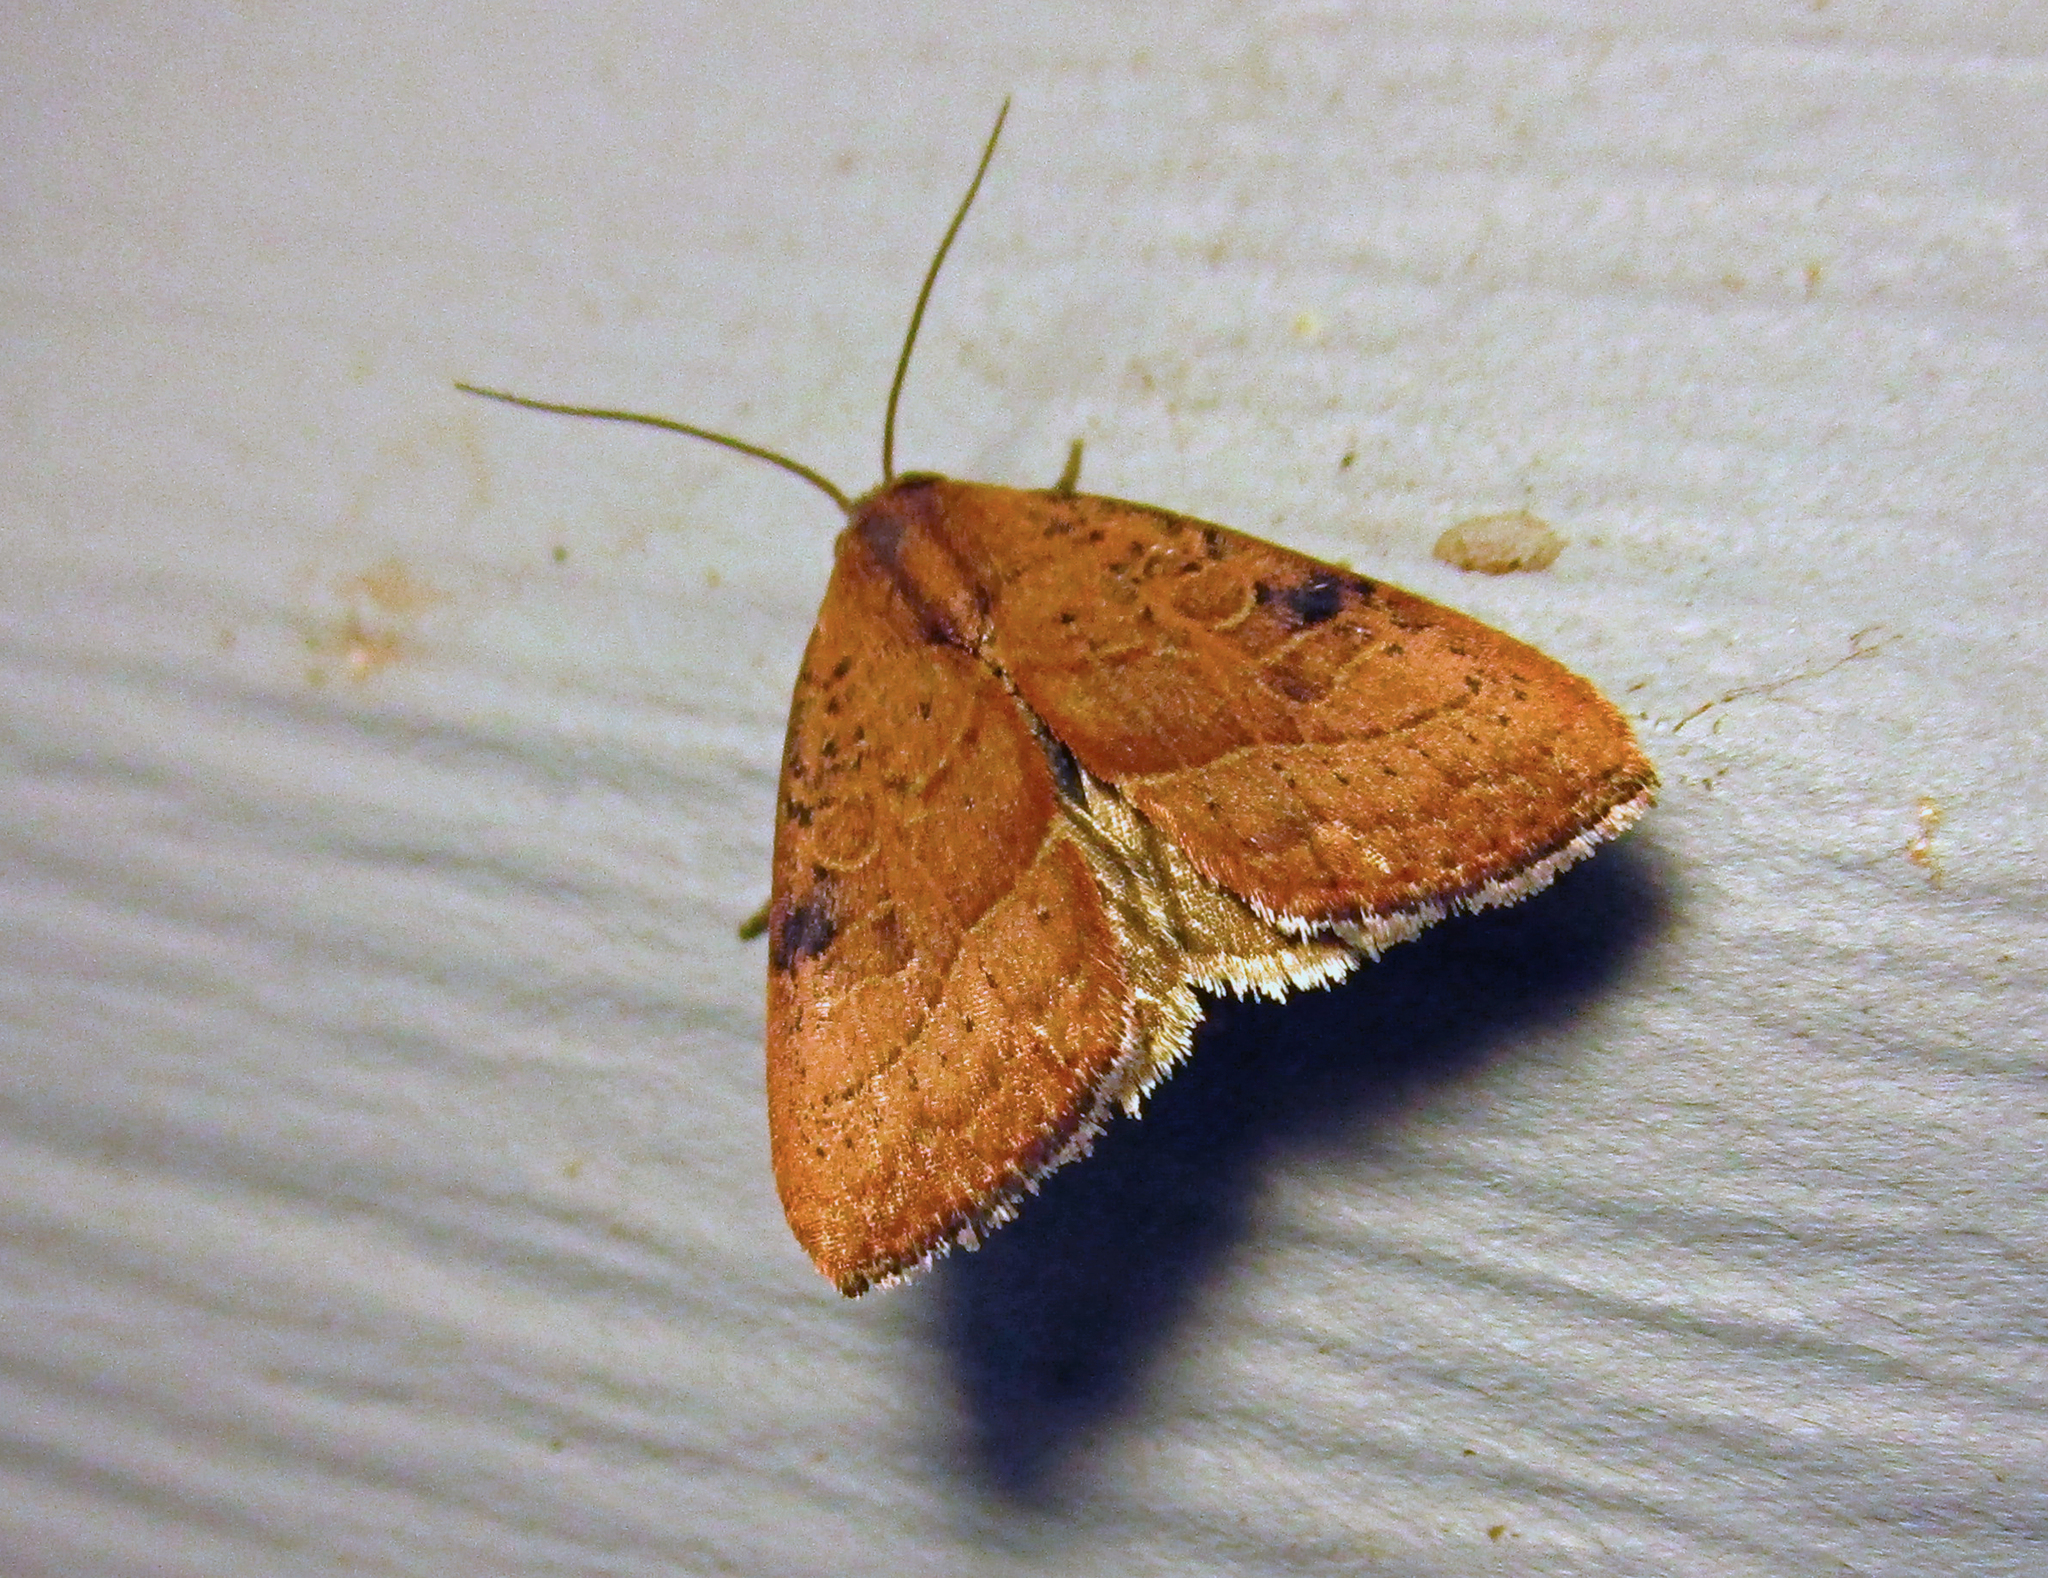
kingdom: Animalia
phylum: Arthropoda
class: Insecta
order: Lepidoptera
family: Noctuidae
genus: Galgula
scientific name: Galgula partita
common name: Wedgeling
